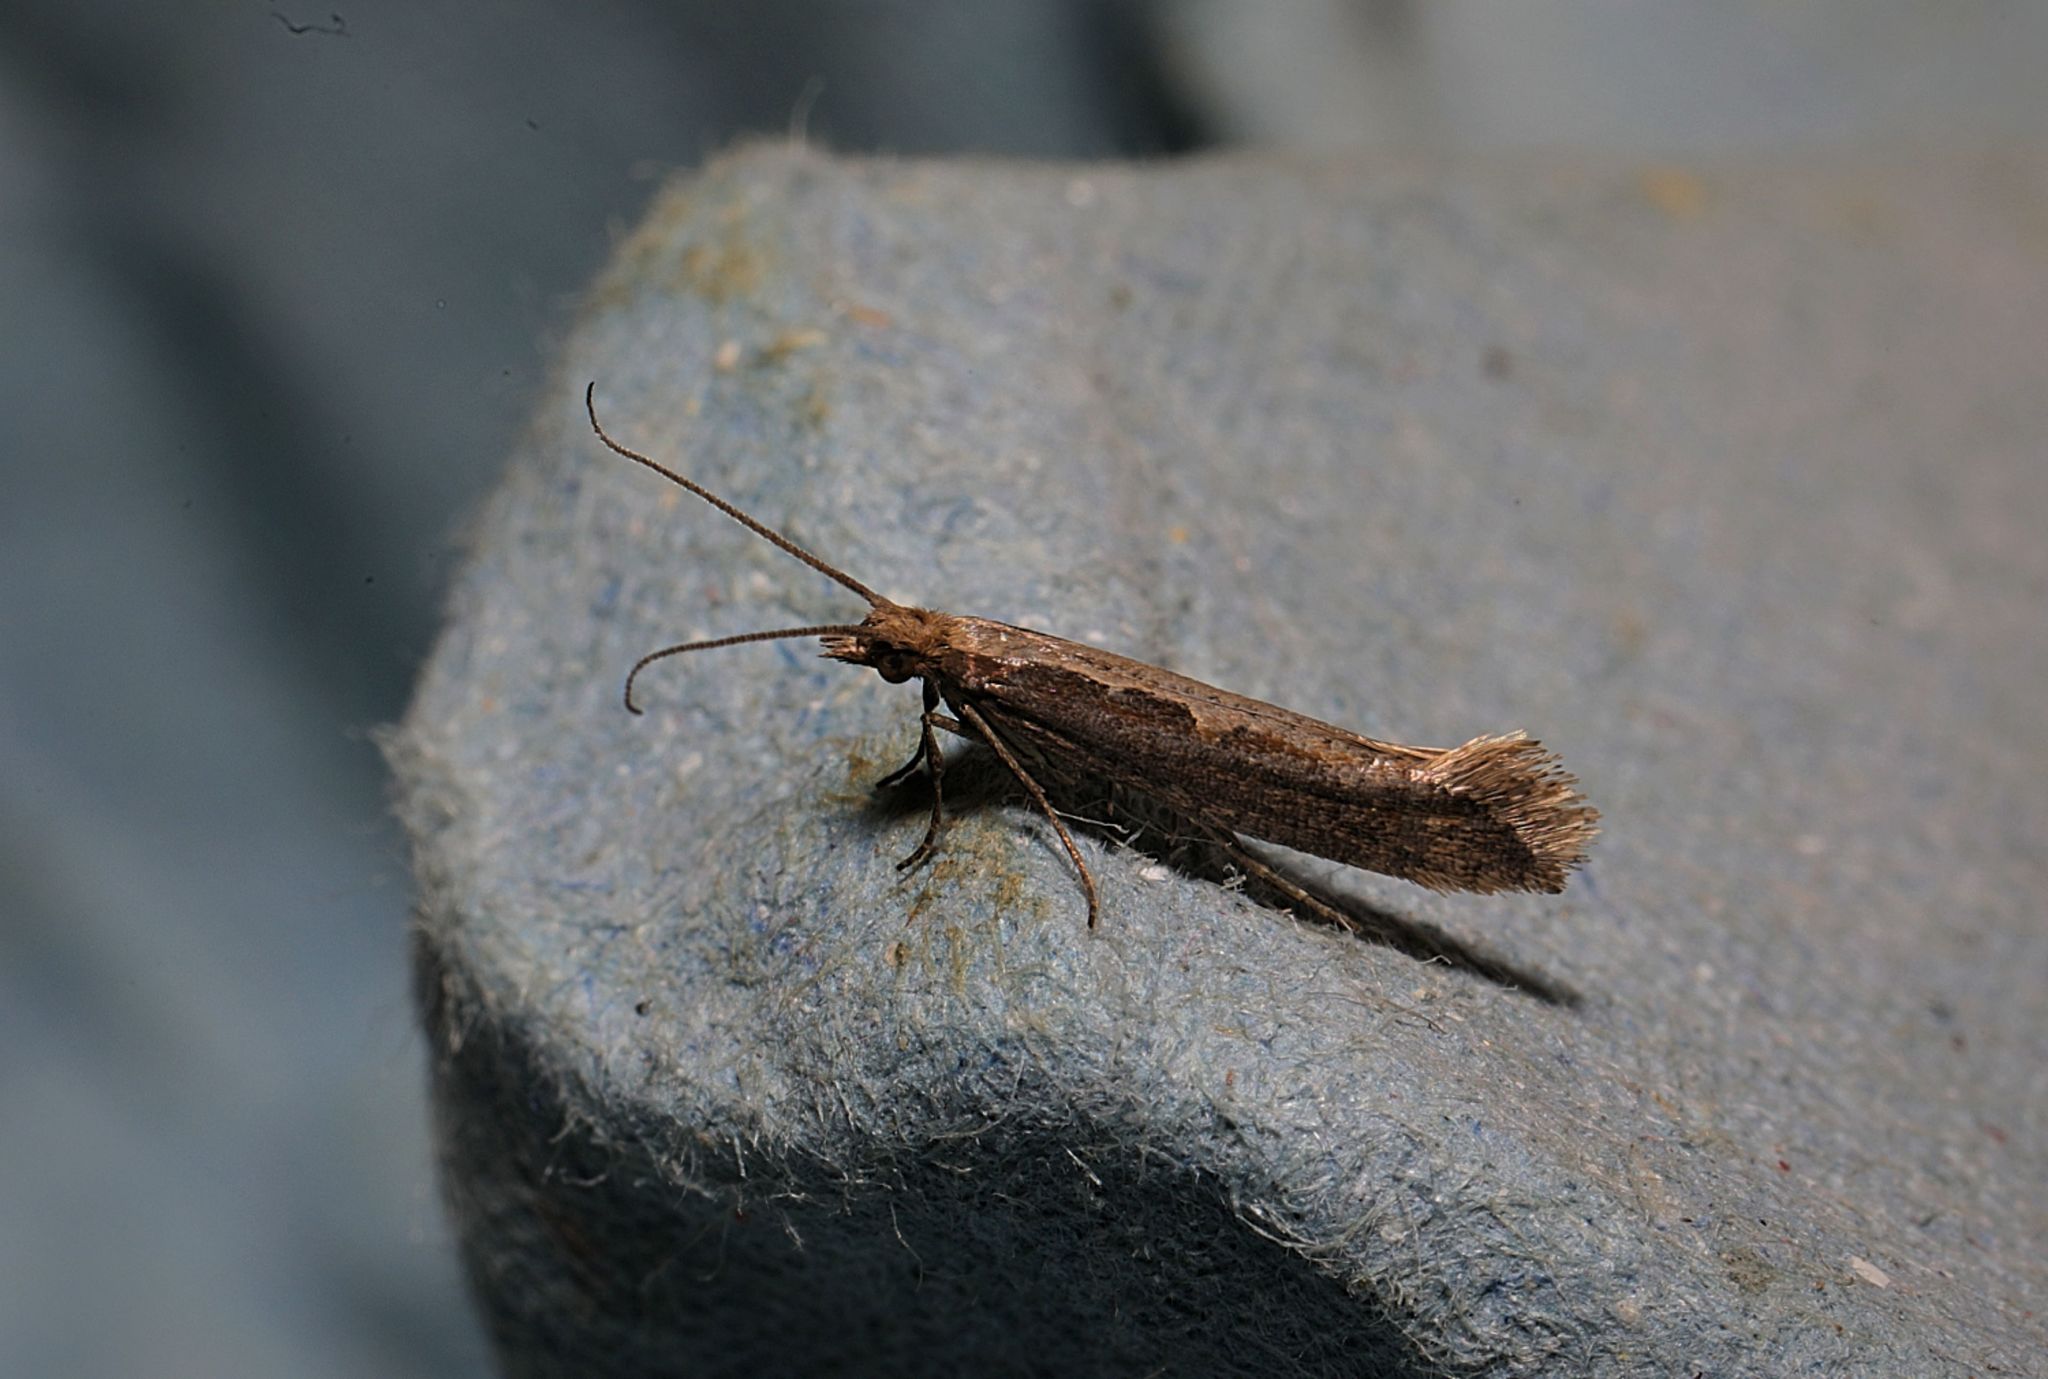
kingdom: Animalia
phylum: Arthropoda
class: Insecta
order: Lepidoptera
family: Plutellidae
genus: Plutella
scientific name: Plutella xylostella
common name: Diamond-back moth
